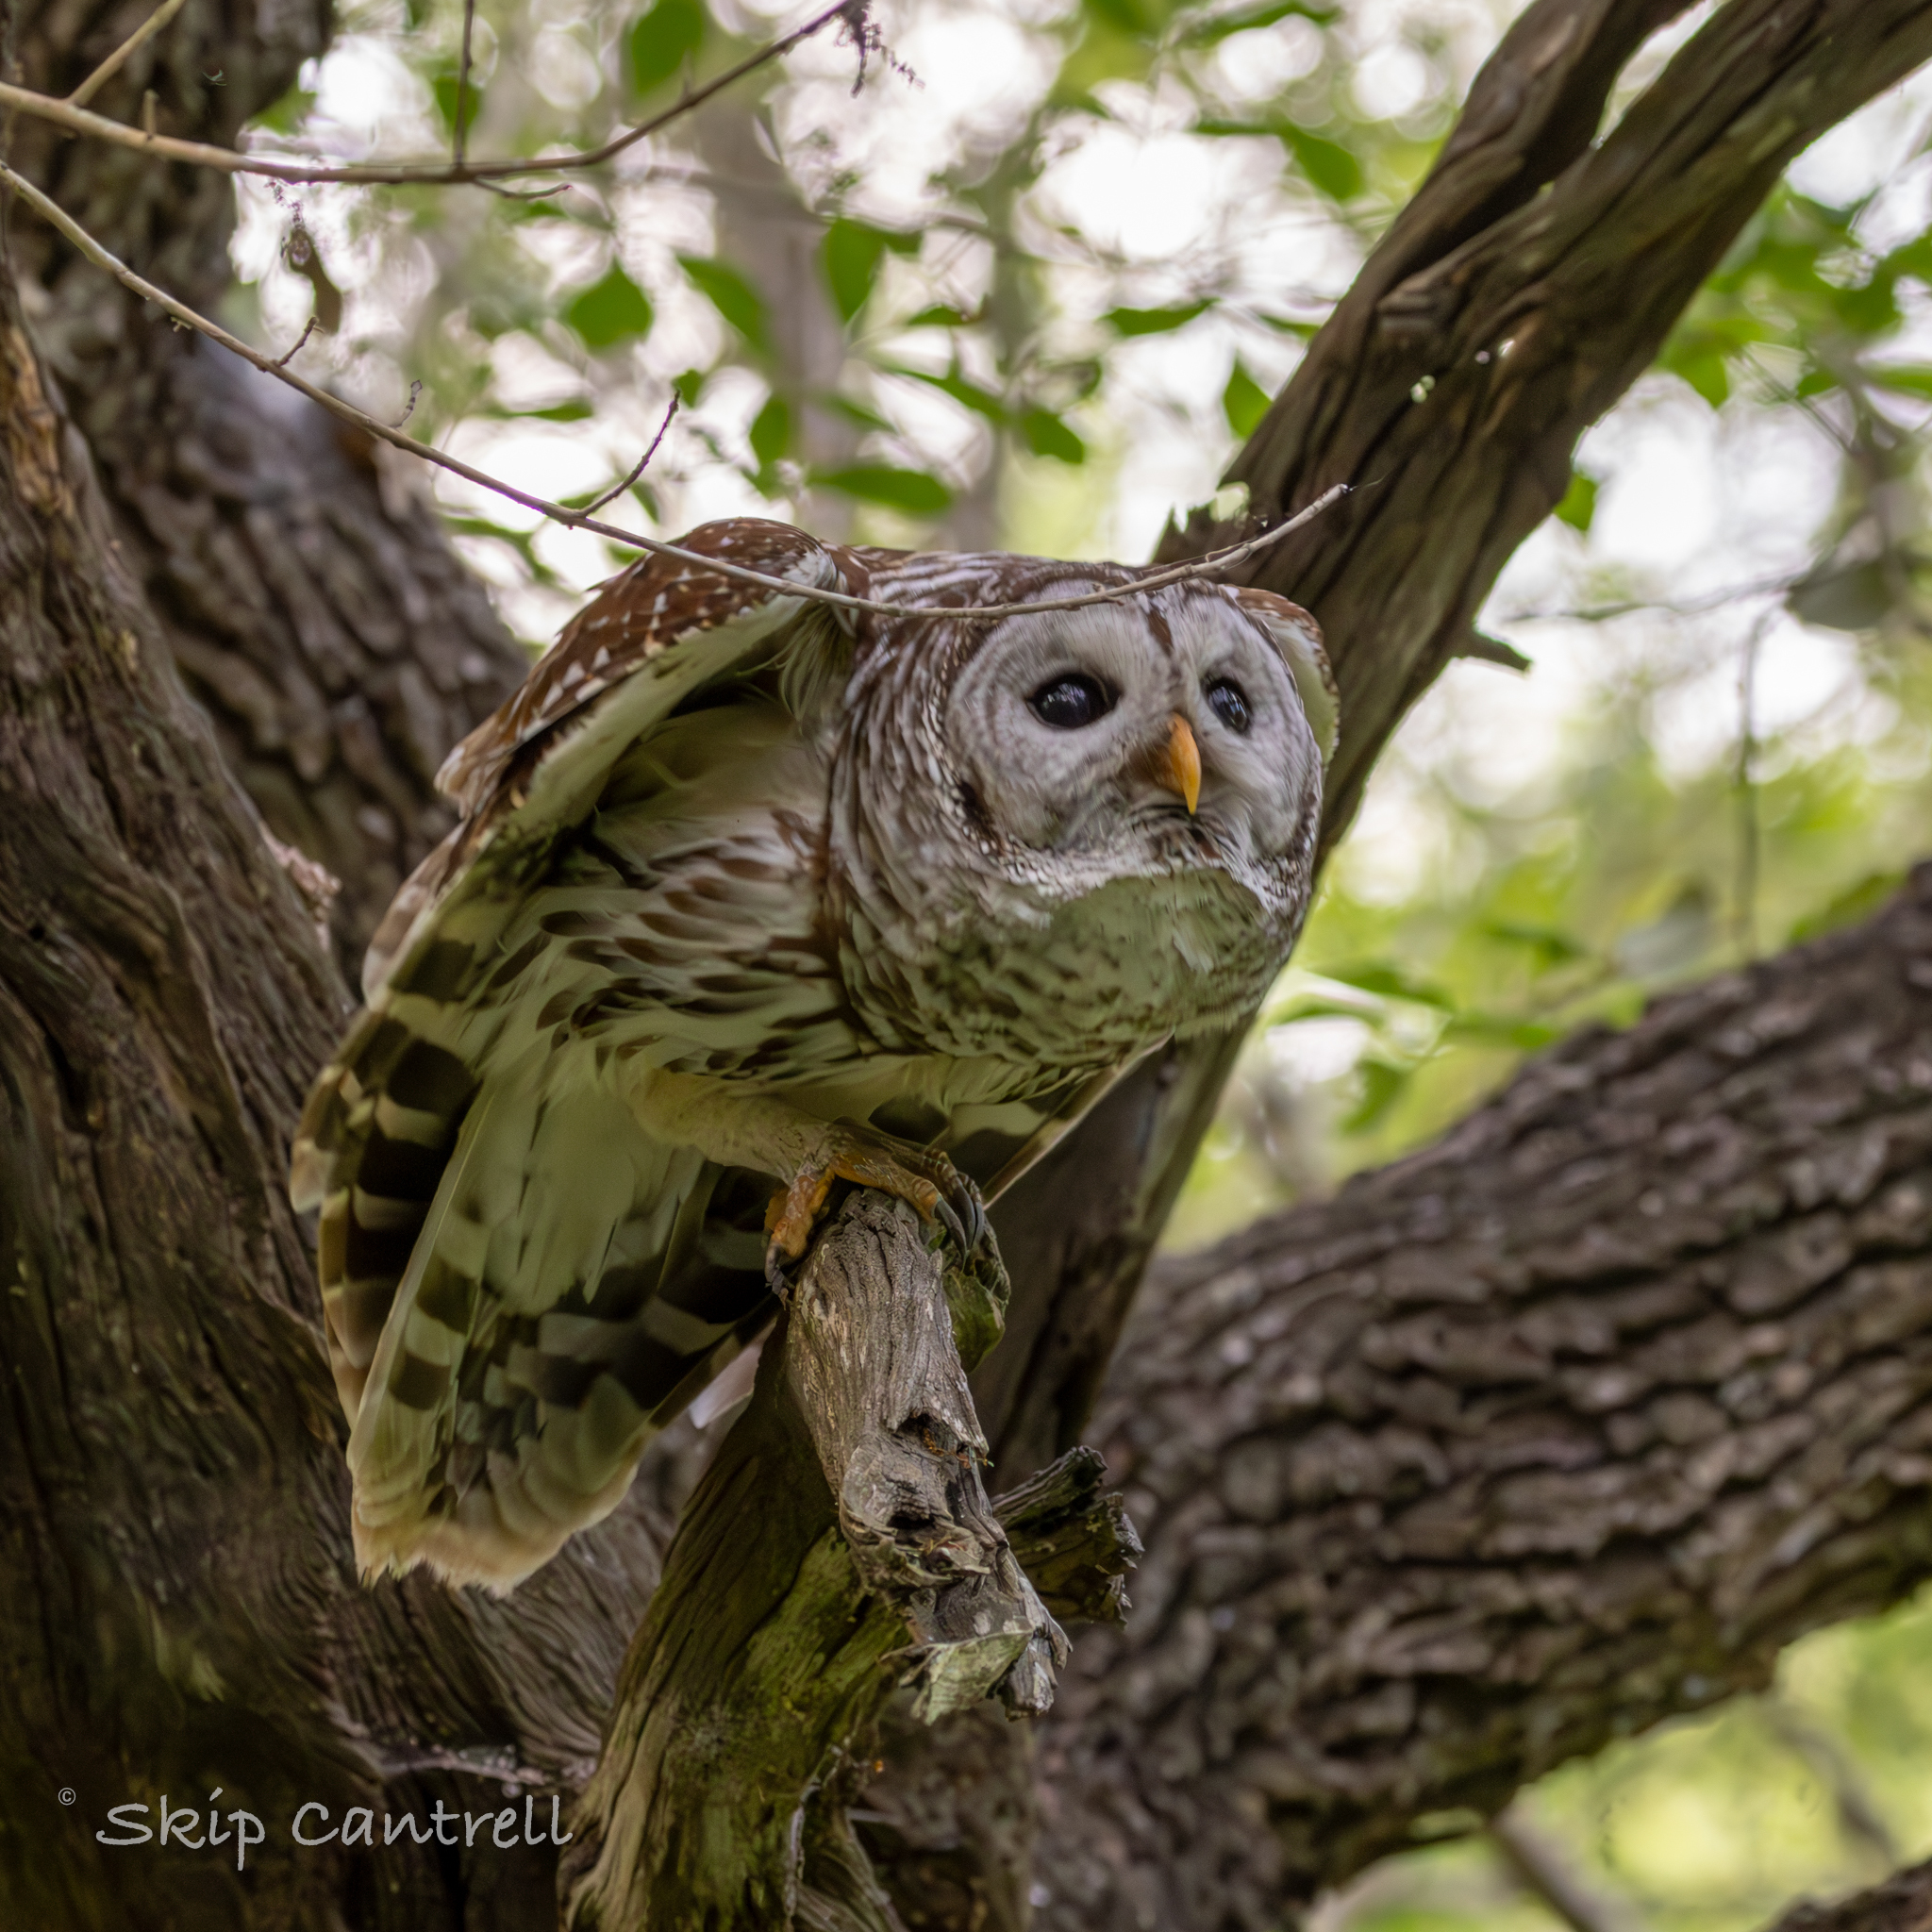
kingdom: Animalia
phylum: Chordata
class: Aves
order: Strigiformes
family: Strigidae
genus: Strix
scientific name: Strix varia
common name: Barred owl
